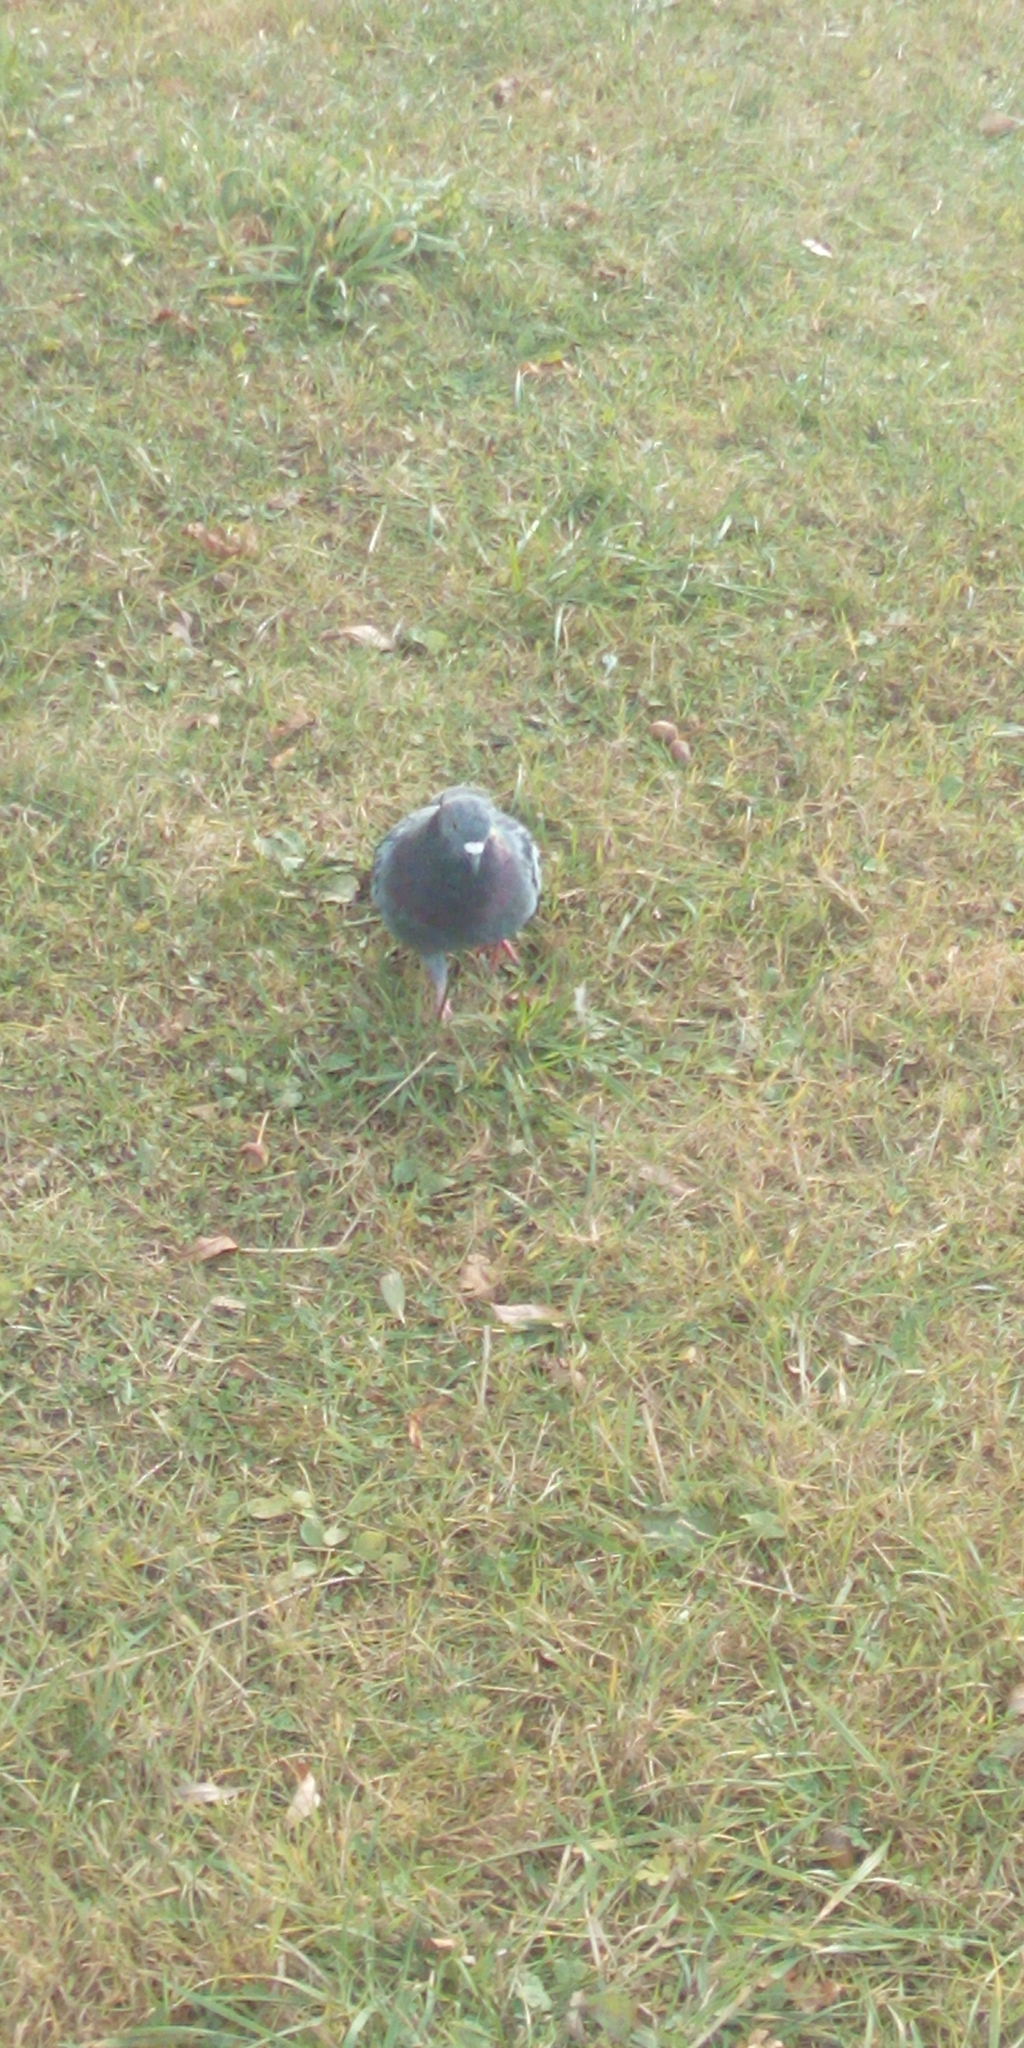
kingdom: Animalia
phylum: Chordata
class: Aves
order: Columbiformes
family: Columbidae
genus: Columba
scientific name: Columba livia
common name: Rock pigeon
